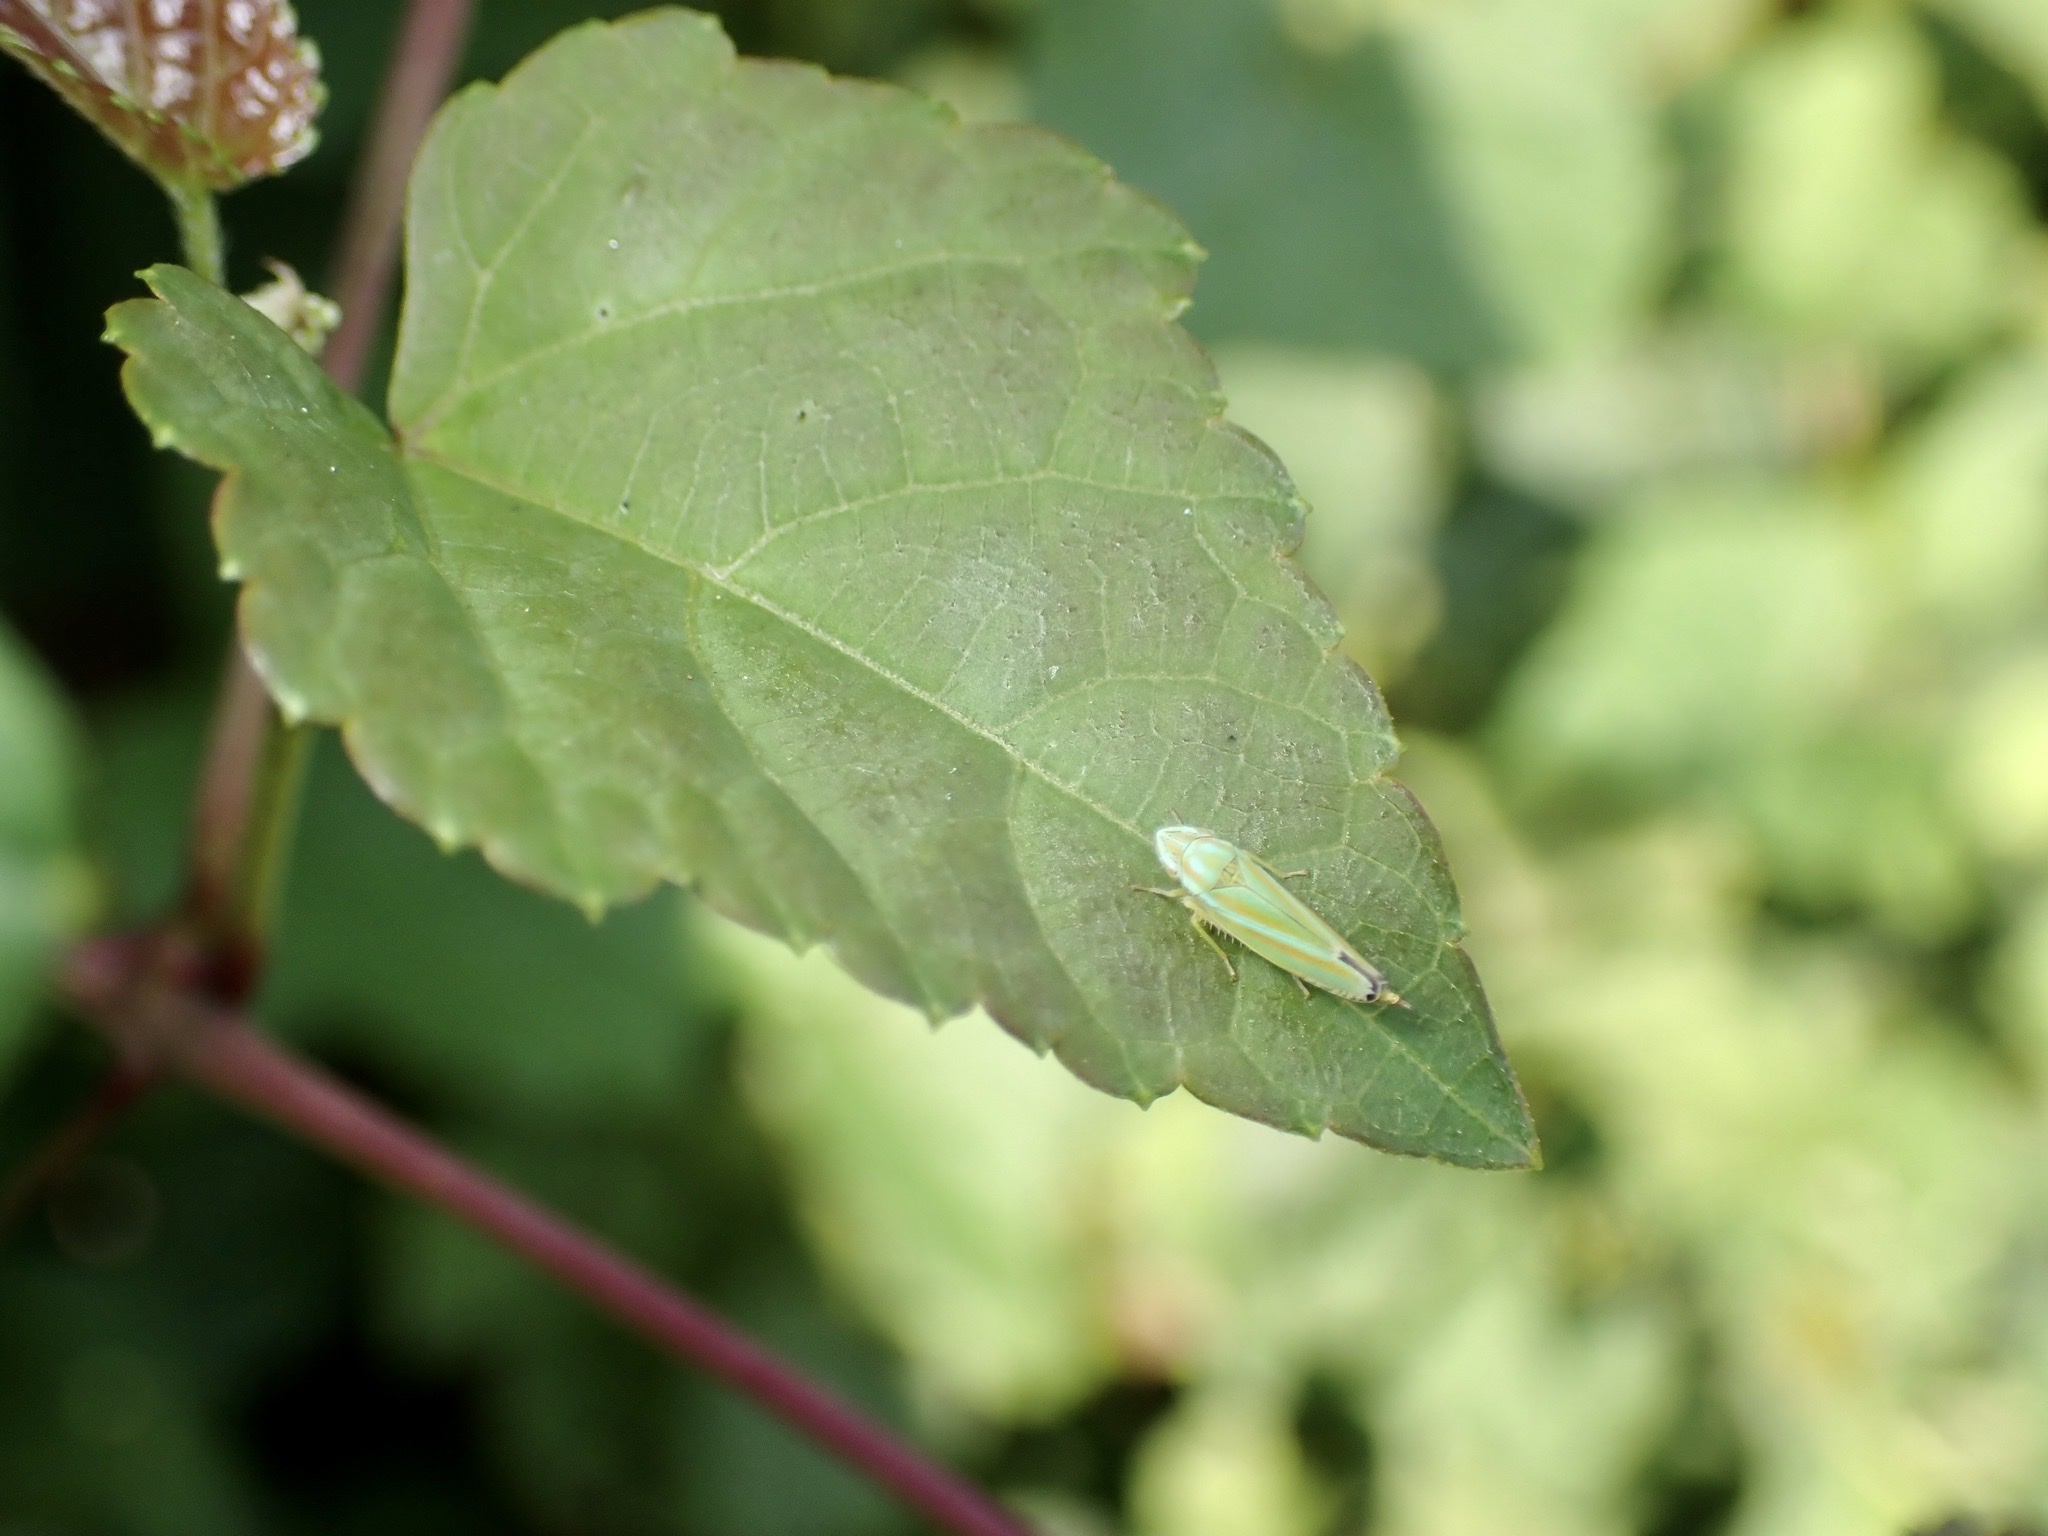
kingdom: Animalia
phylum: Arthropoda
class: Insecta
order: Hemiptera
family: Cicadellidae
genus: Graphocephala
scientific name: Graphocephala versuta
